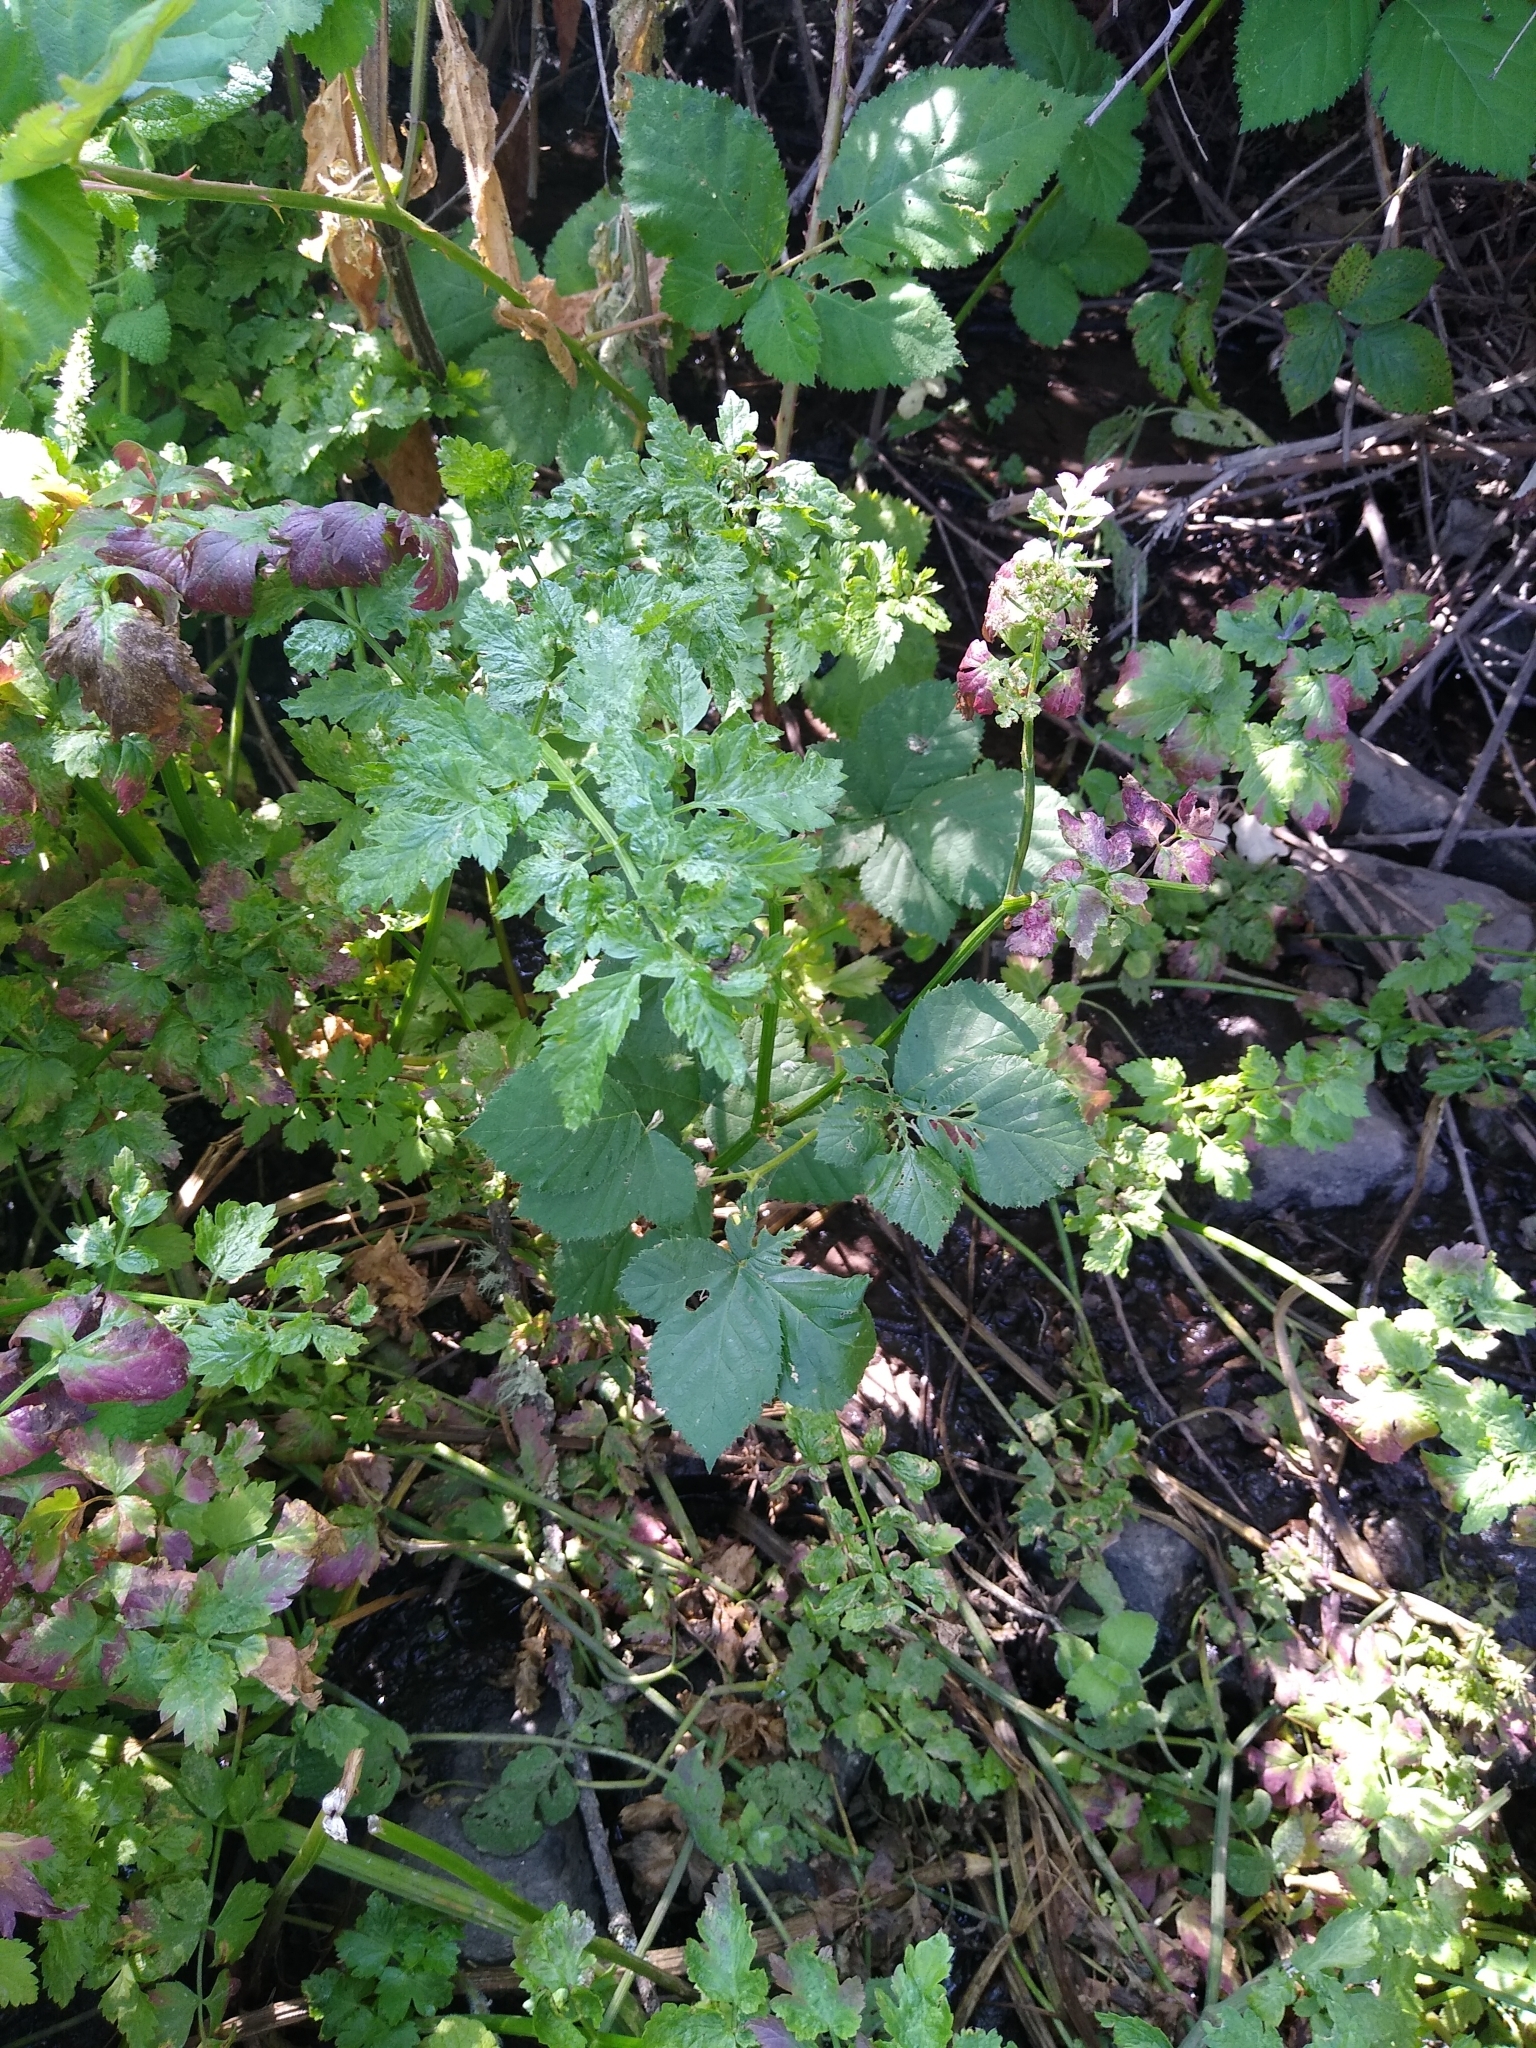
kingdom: Plantae
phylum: Tracheophyta
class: Magnoliopsida
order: Apiales
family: Apiaceae
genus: Oenanthe
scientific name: Oenanthe sarmentosa
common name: American water-parsley
